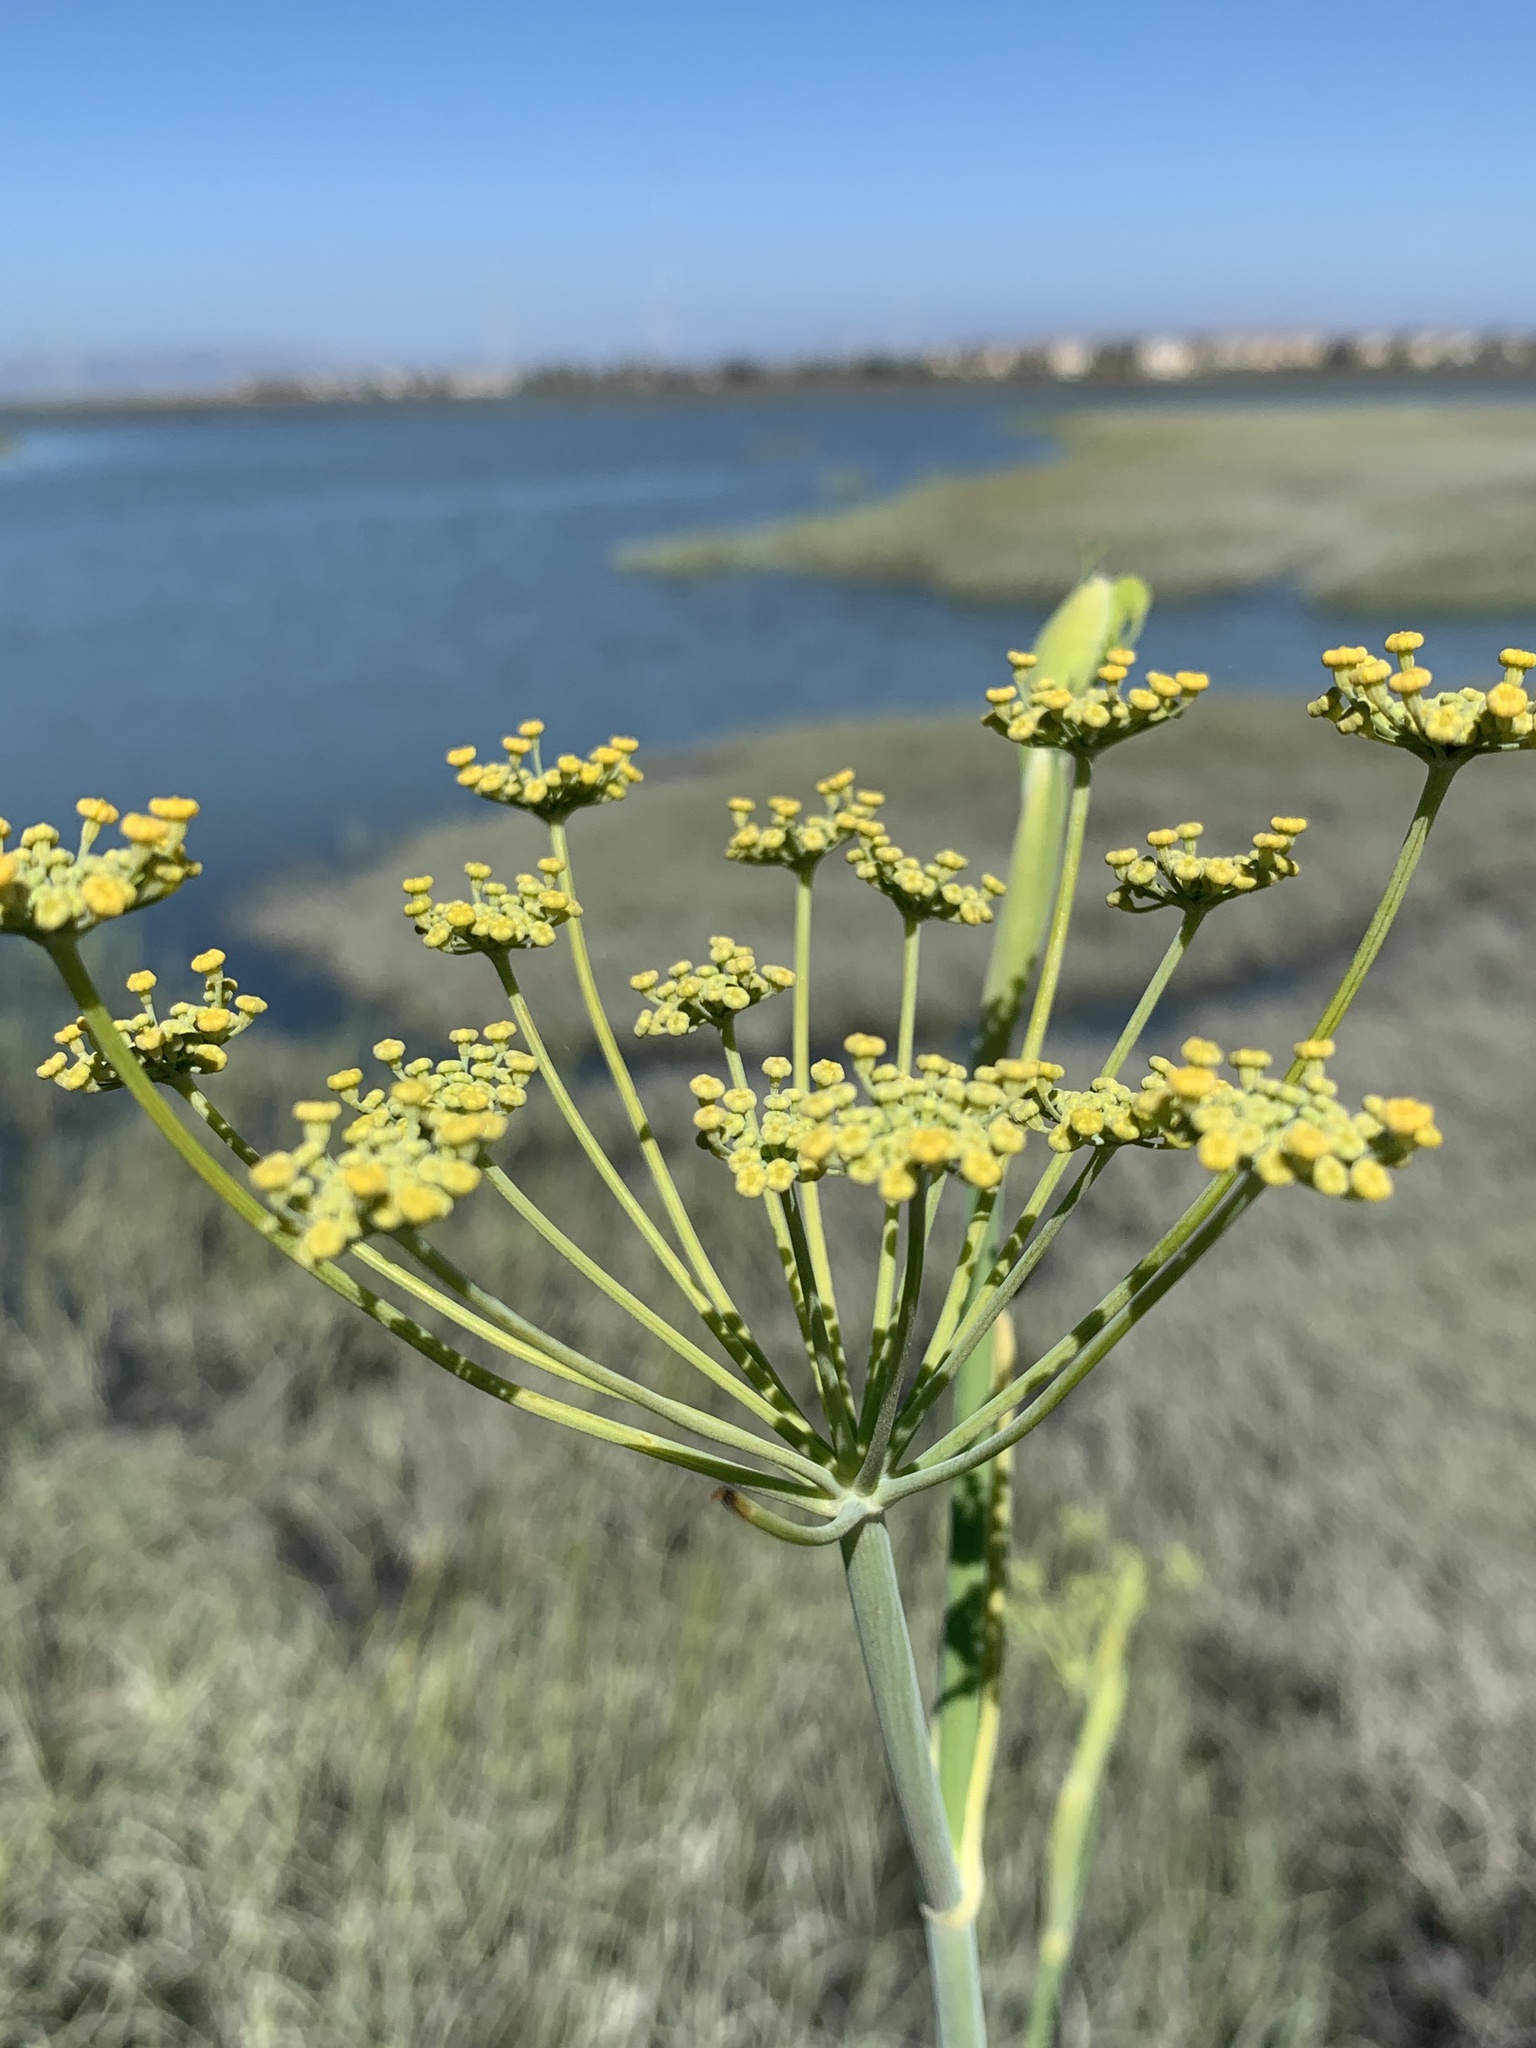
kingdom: Plantae
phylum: Tracheophyta
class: Magnoliopsida
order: Apiales
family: Apiaceae
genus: Foeniculum
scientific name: Foeniculum vulgare
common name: Fennel
